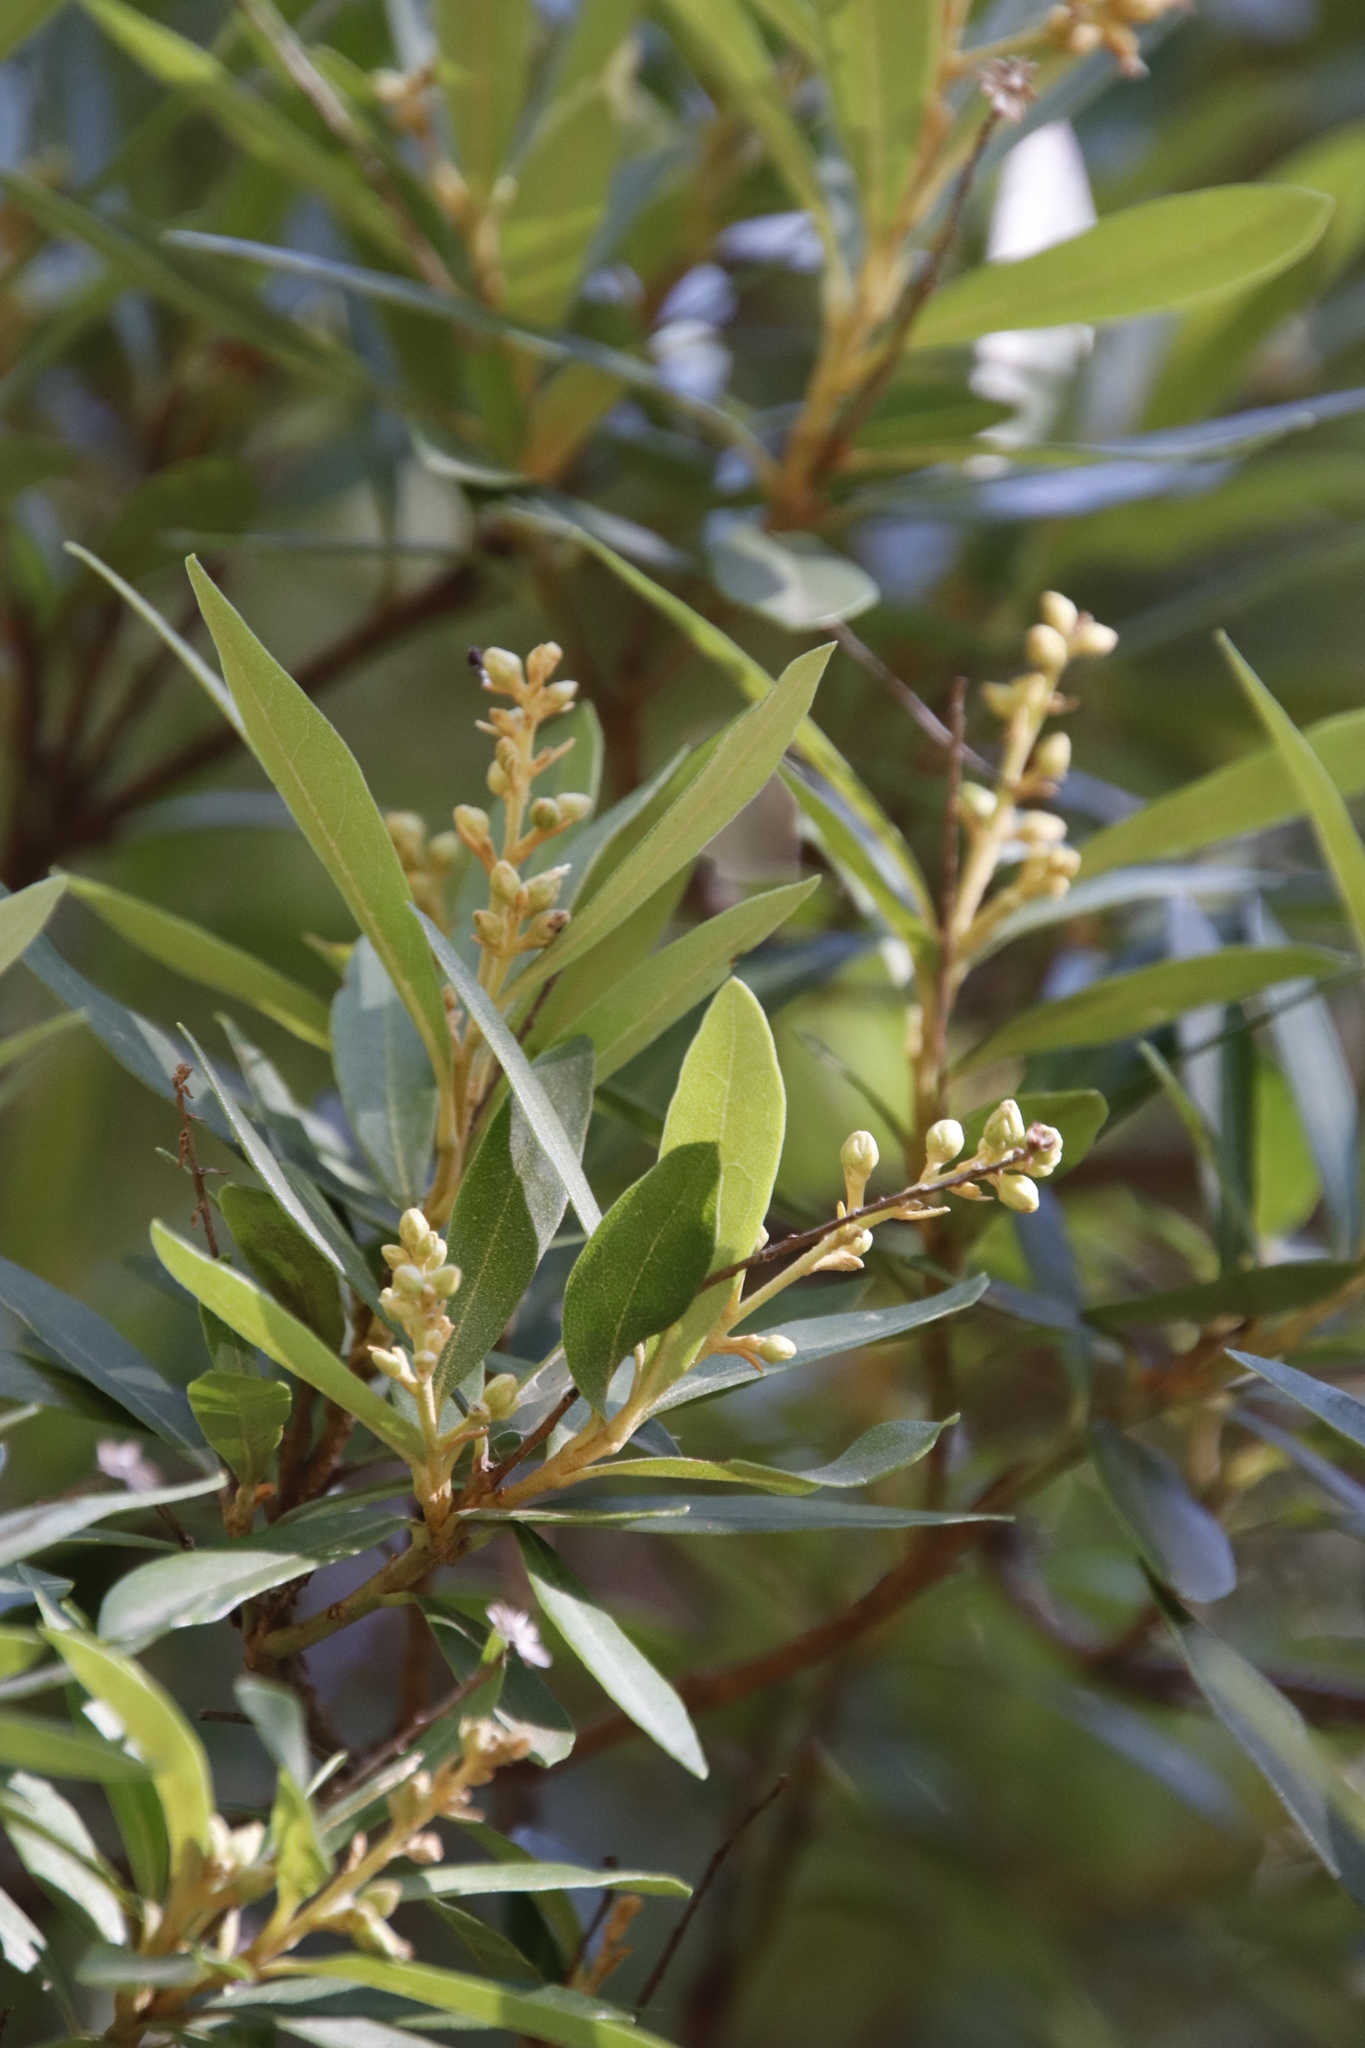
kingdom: Plantae
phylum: Tracheophyta
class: Magnoliopsida
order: Asterales
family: Asteraceae
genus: Brachylaena
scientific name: Brachylaena neriifolia
